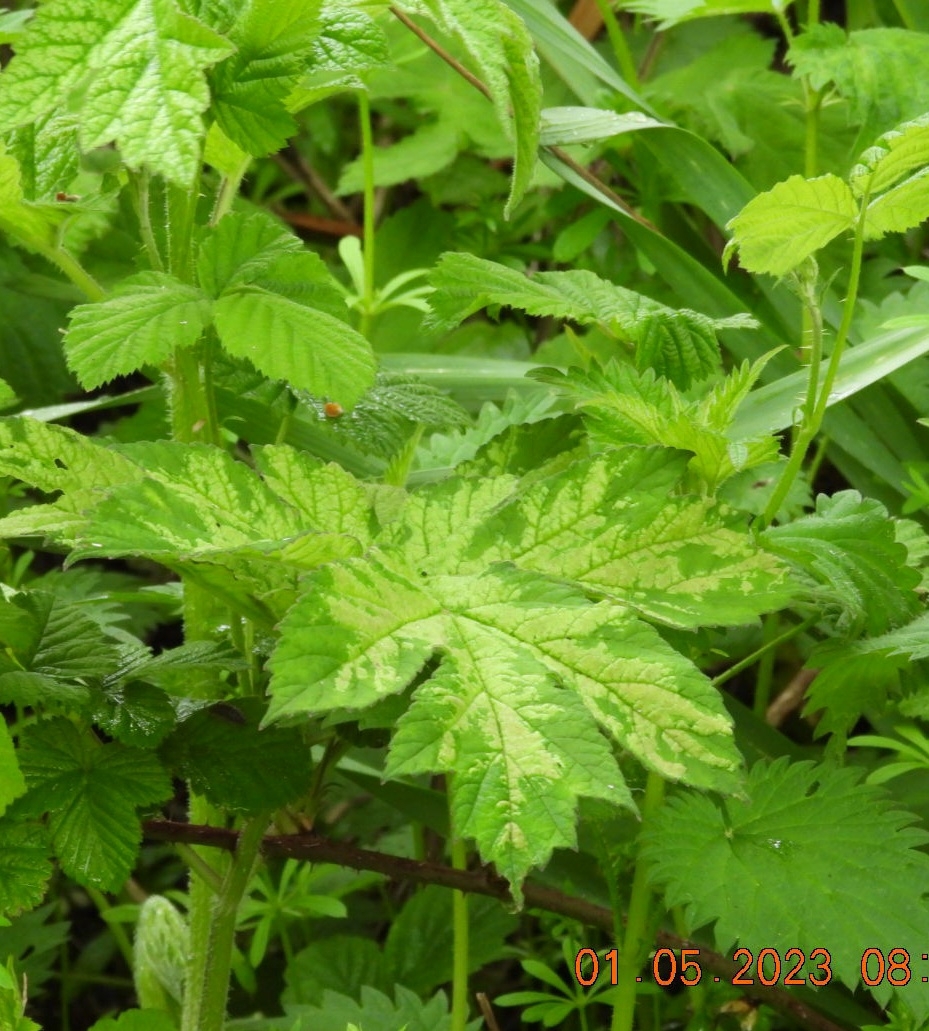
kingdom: Plantae
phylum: Tracheophyta
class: Magnoliopsida
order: Apiales
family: Apiaceae
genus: Heracleum
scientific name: Heracleum sphondylium
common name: Hogweed
